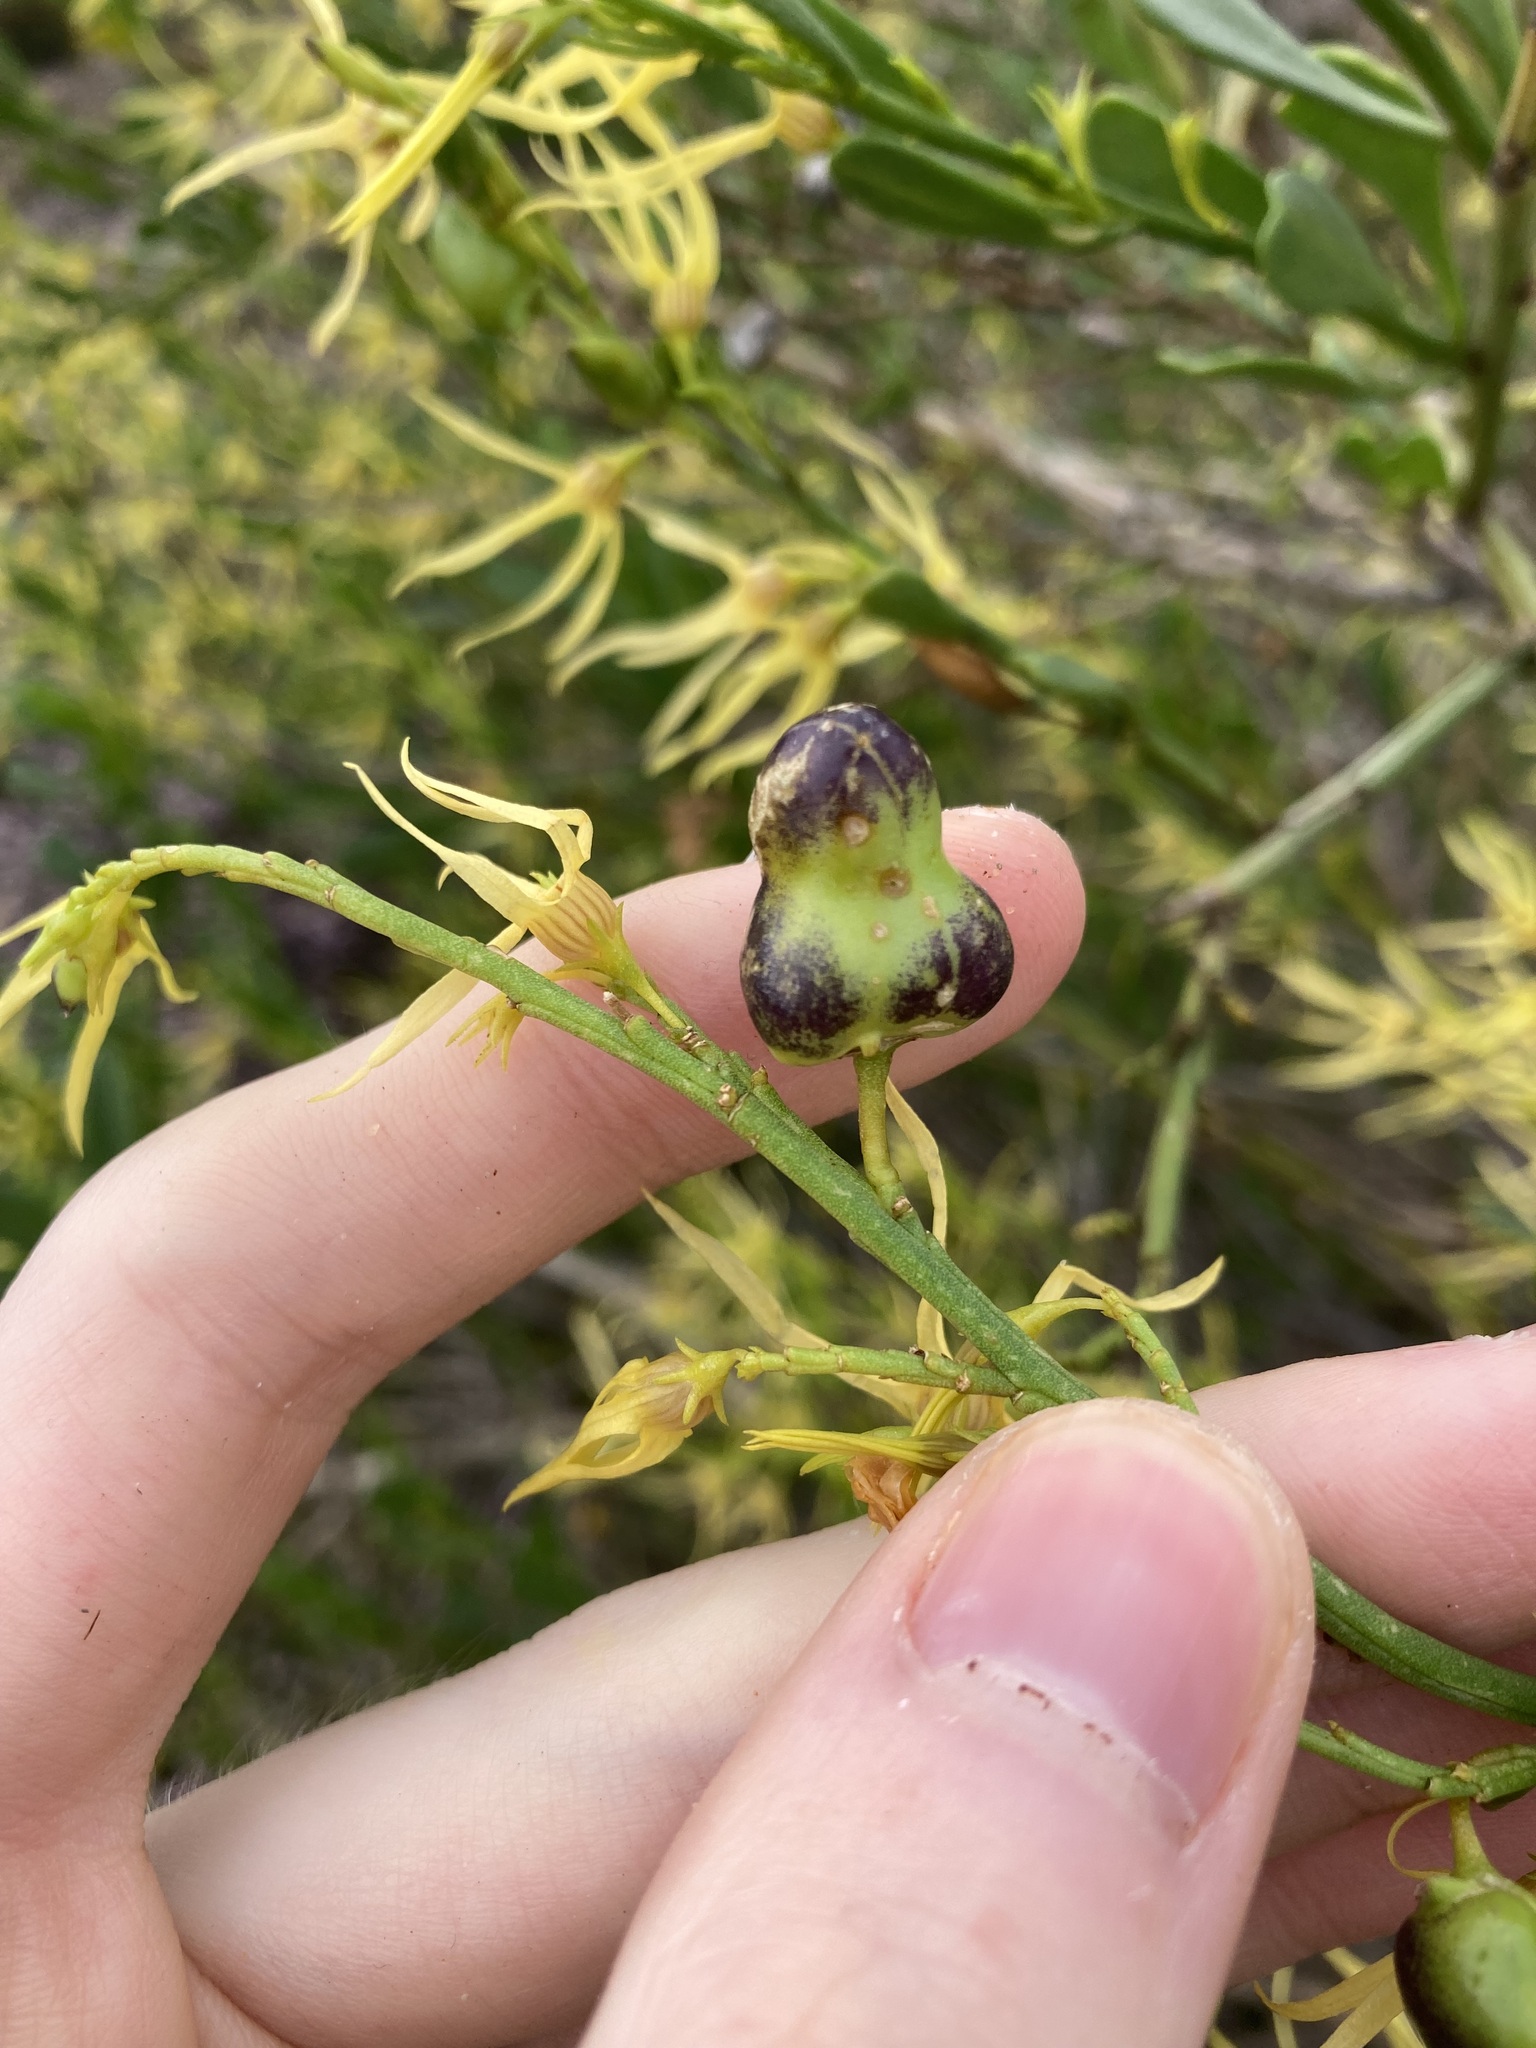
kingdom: Animalia
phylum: Arthropoda
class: Insecta
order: Diptera
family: Cecidomyiidae
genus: Asphondylia
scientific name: Asphondylia anthocercidis
